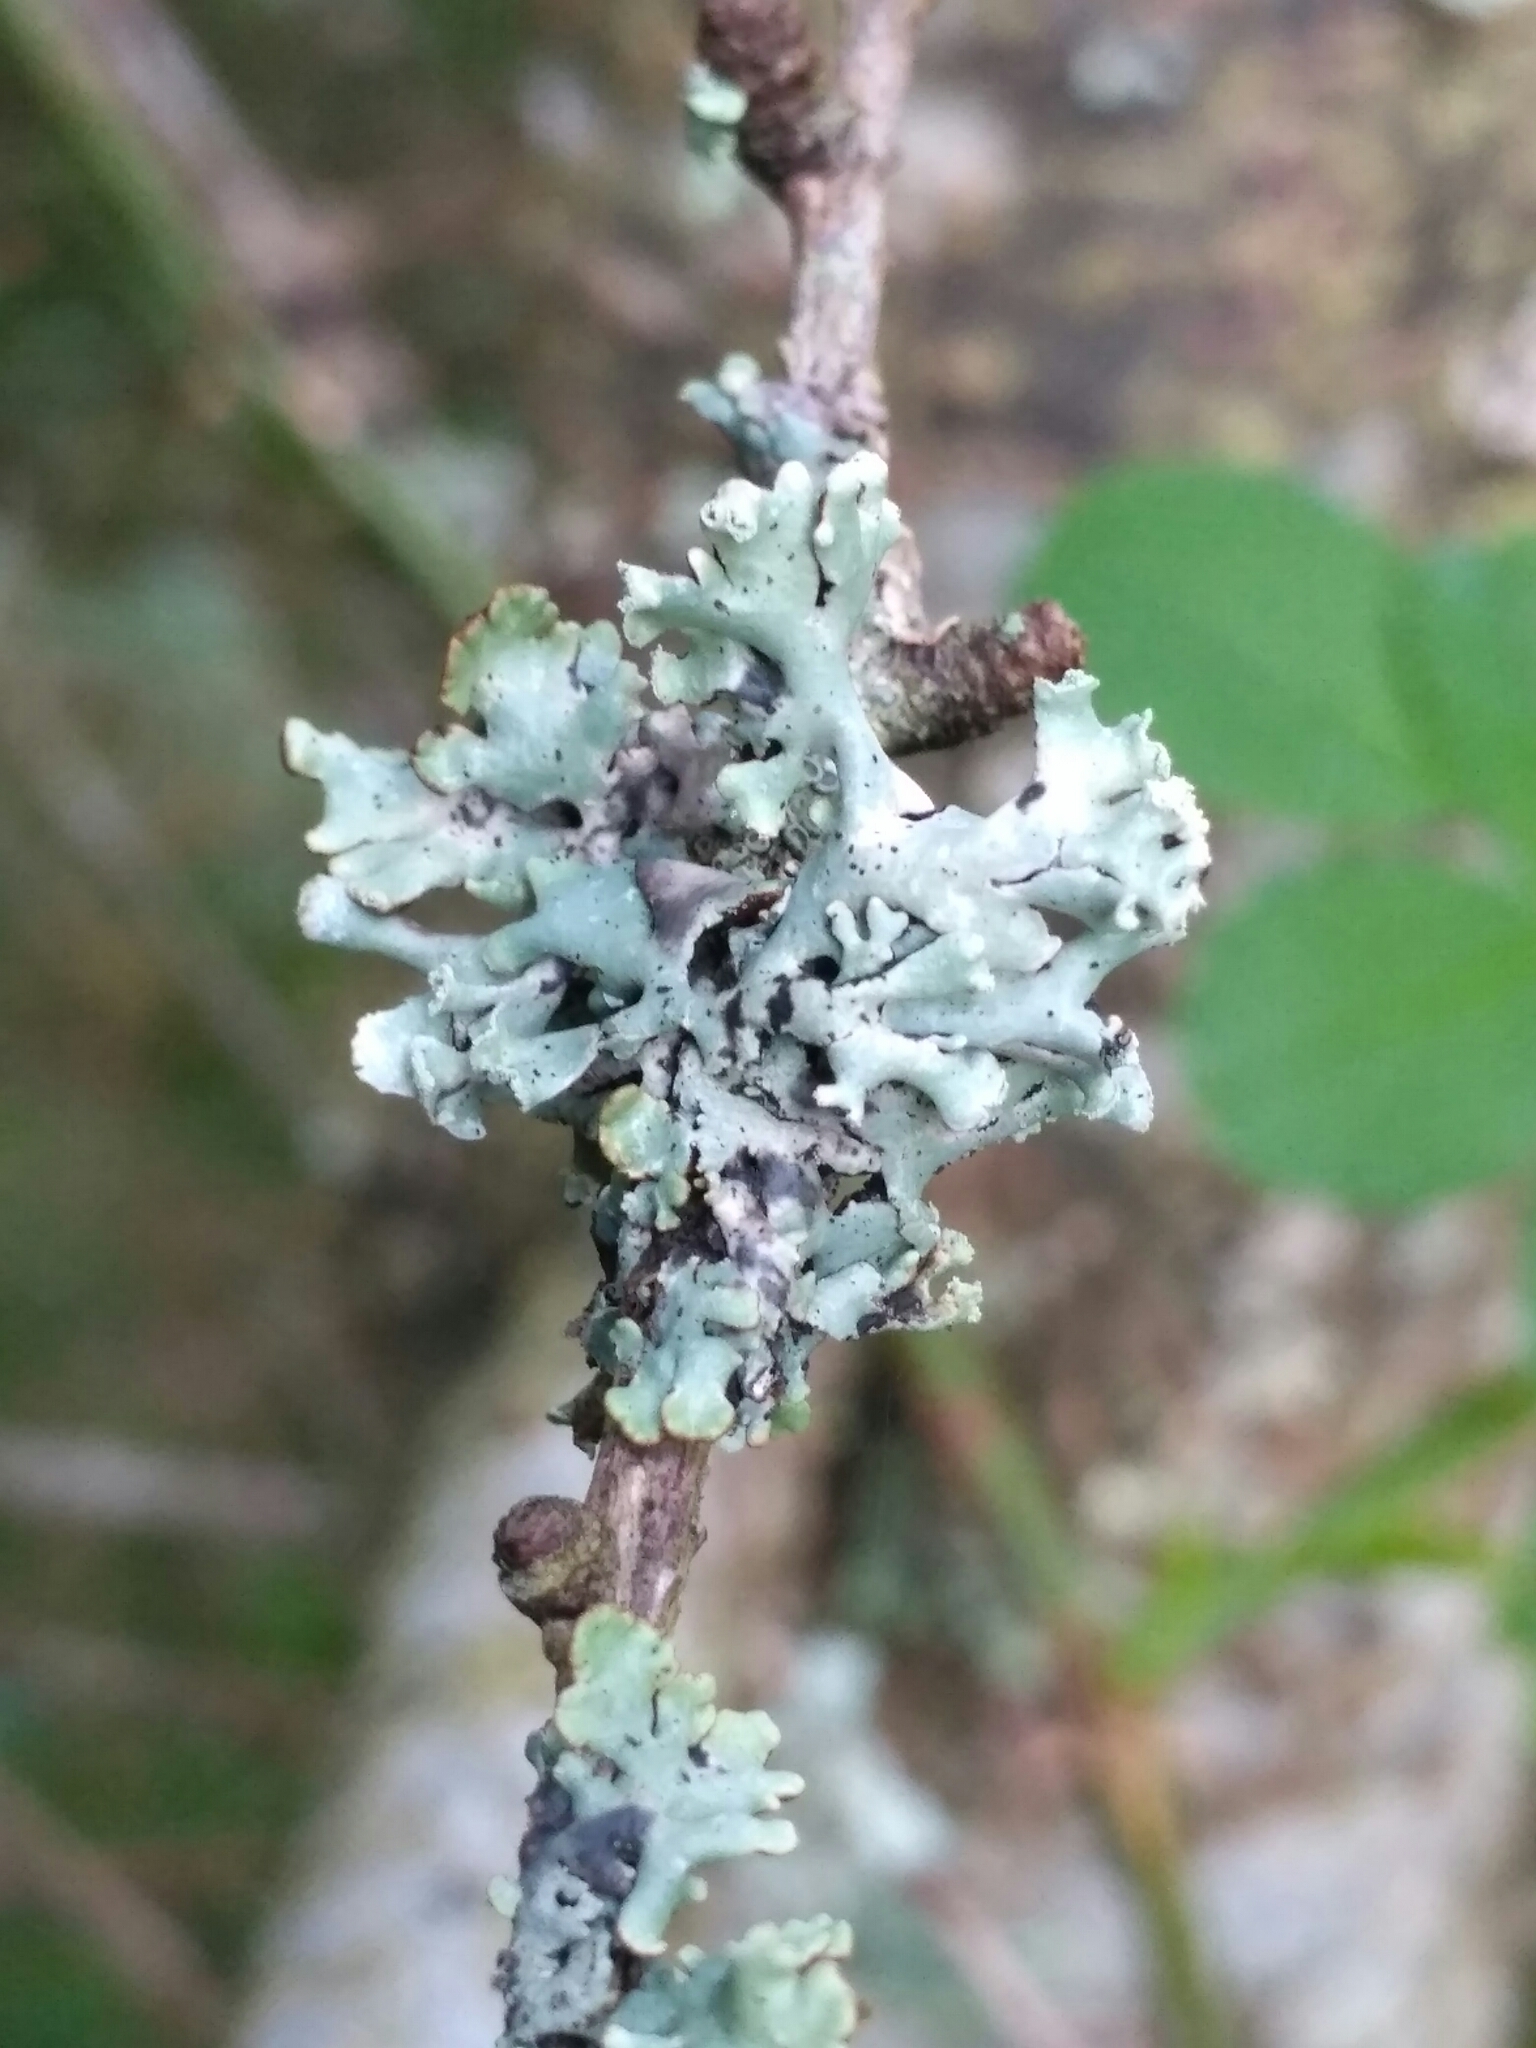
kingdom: Fungi
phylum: Ascomycota
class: Lecanoromycetes
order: Lecanorales
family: Parmeliaceae
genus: Hypogymnia
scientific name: Hypogymnia physodes
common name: Dark crottle
